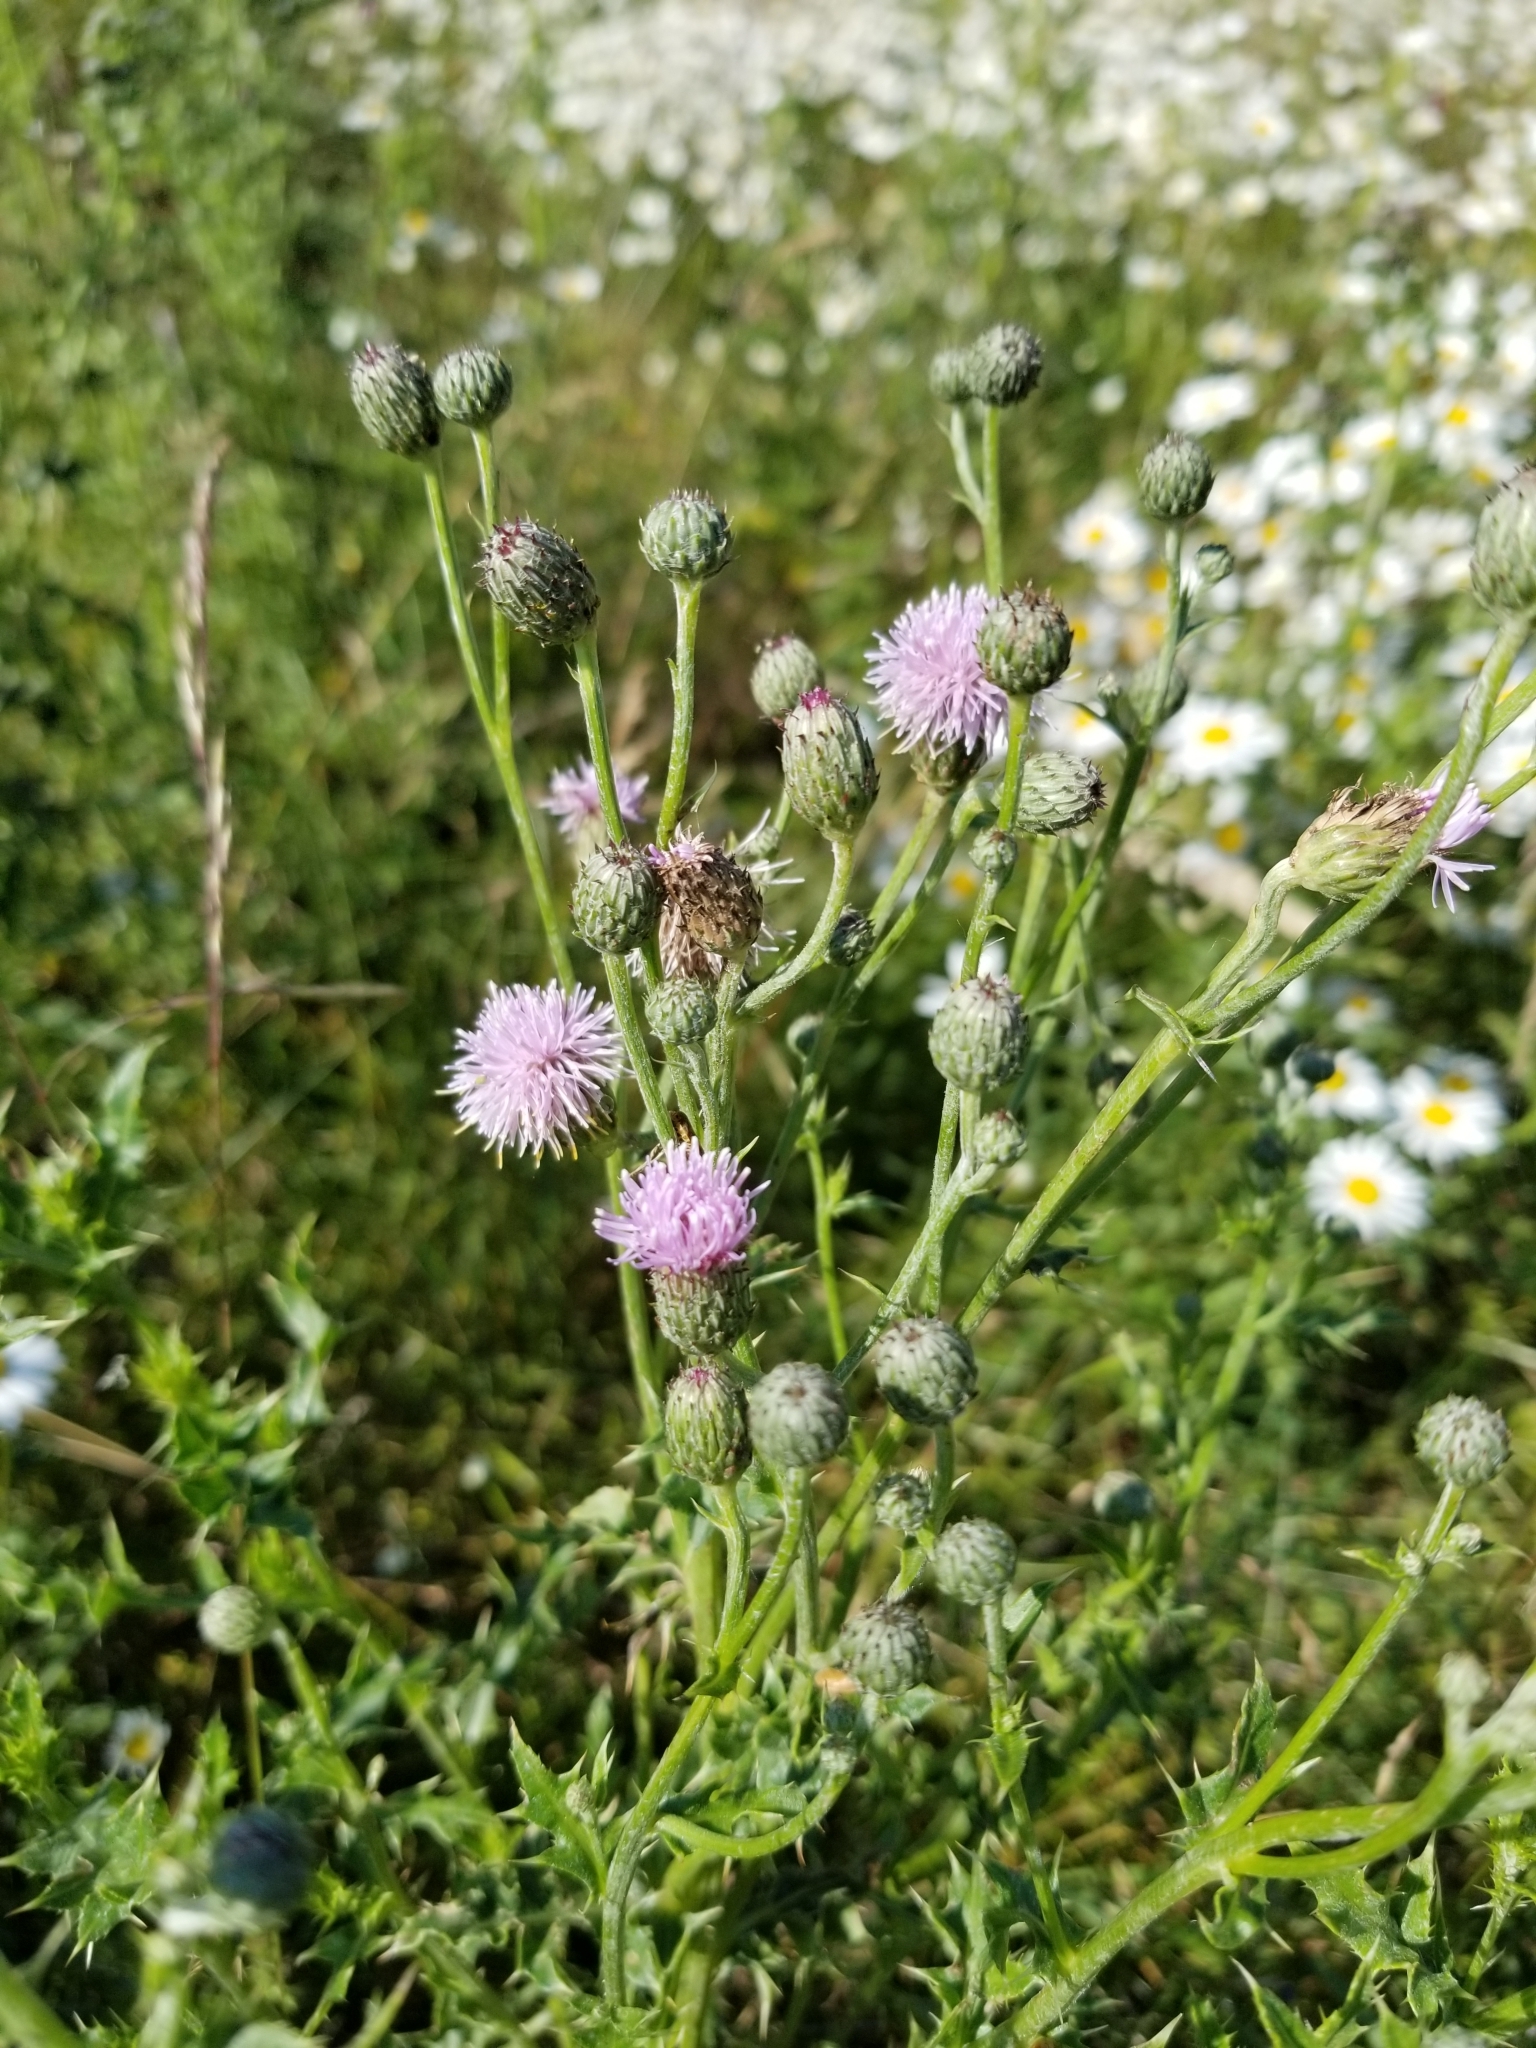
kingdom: Plantae
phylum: Tracheophyta
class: Magnoliopsida
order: Asterales
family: Asteraceae
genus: Cirsium
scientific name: Cirsium arvense
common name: Creeping thistle
